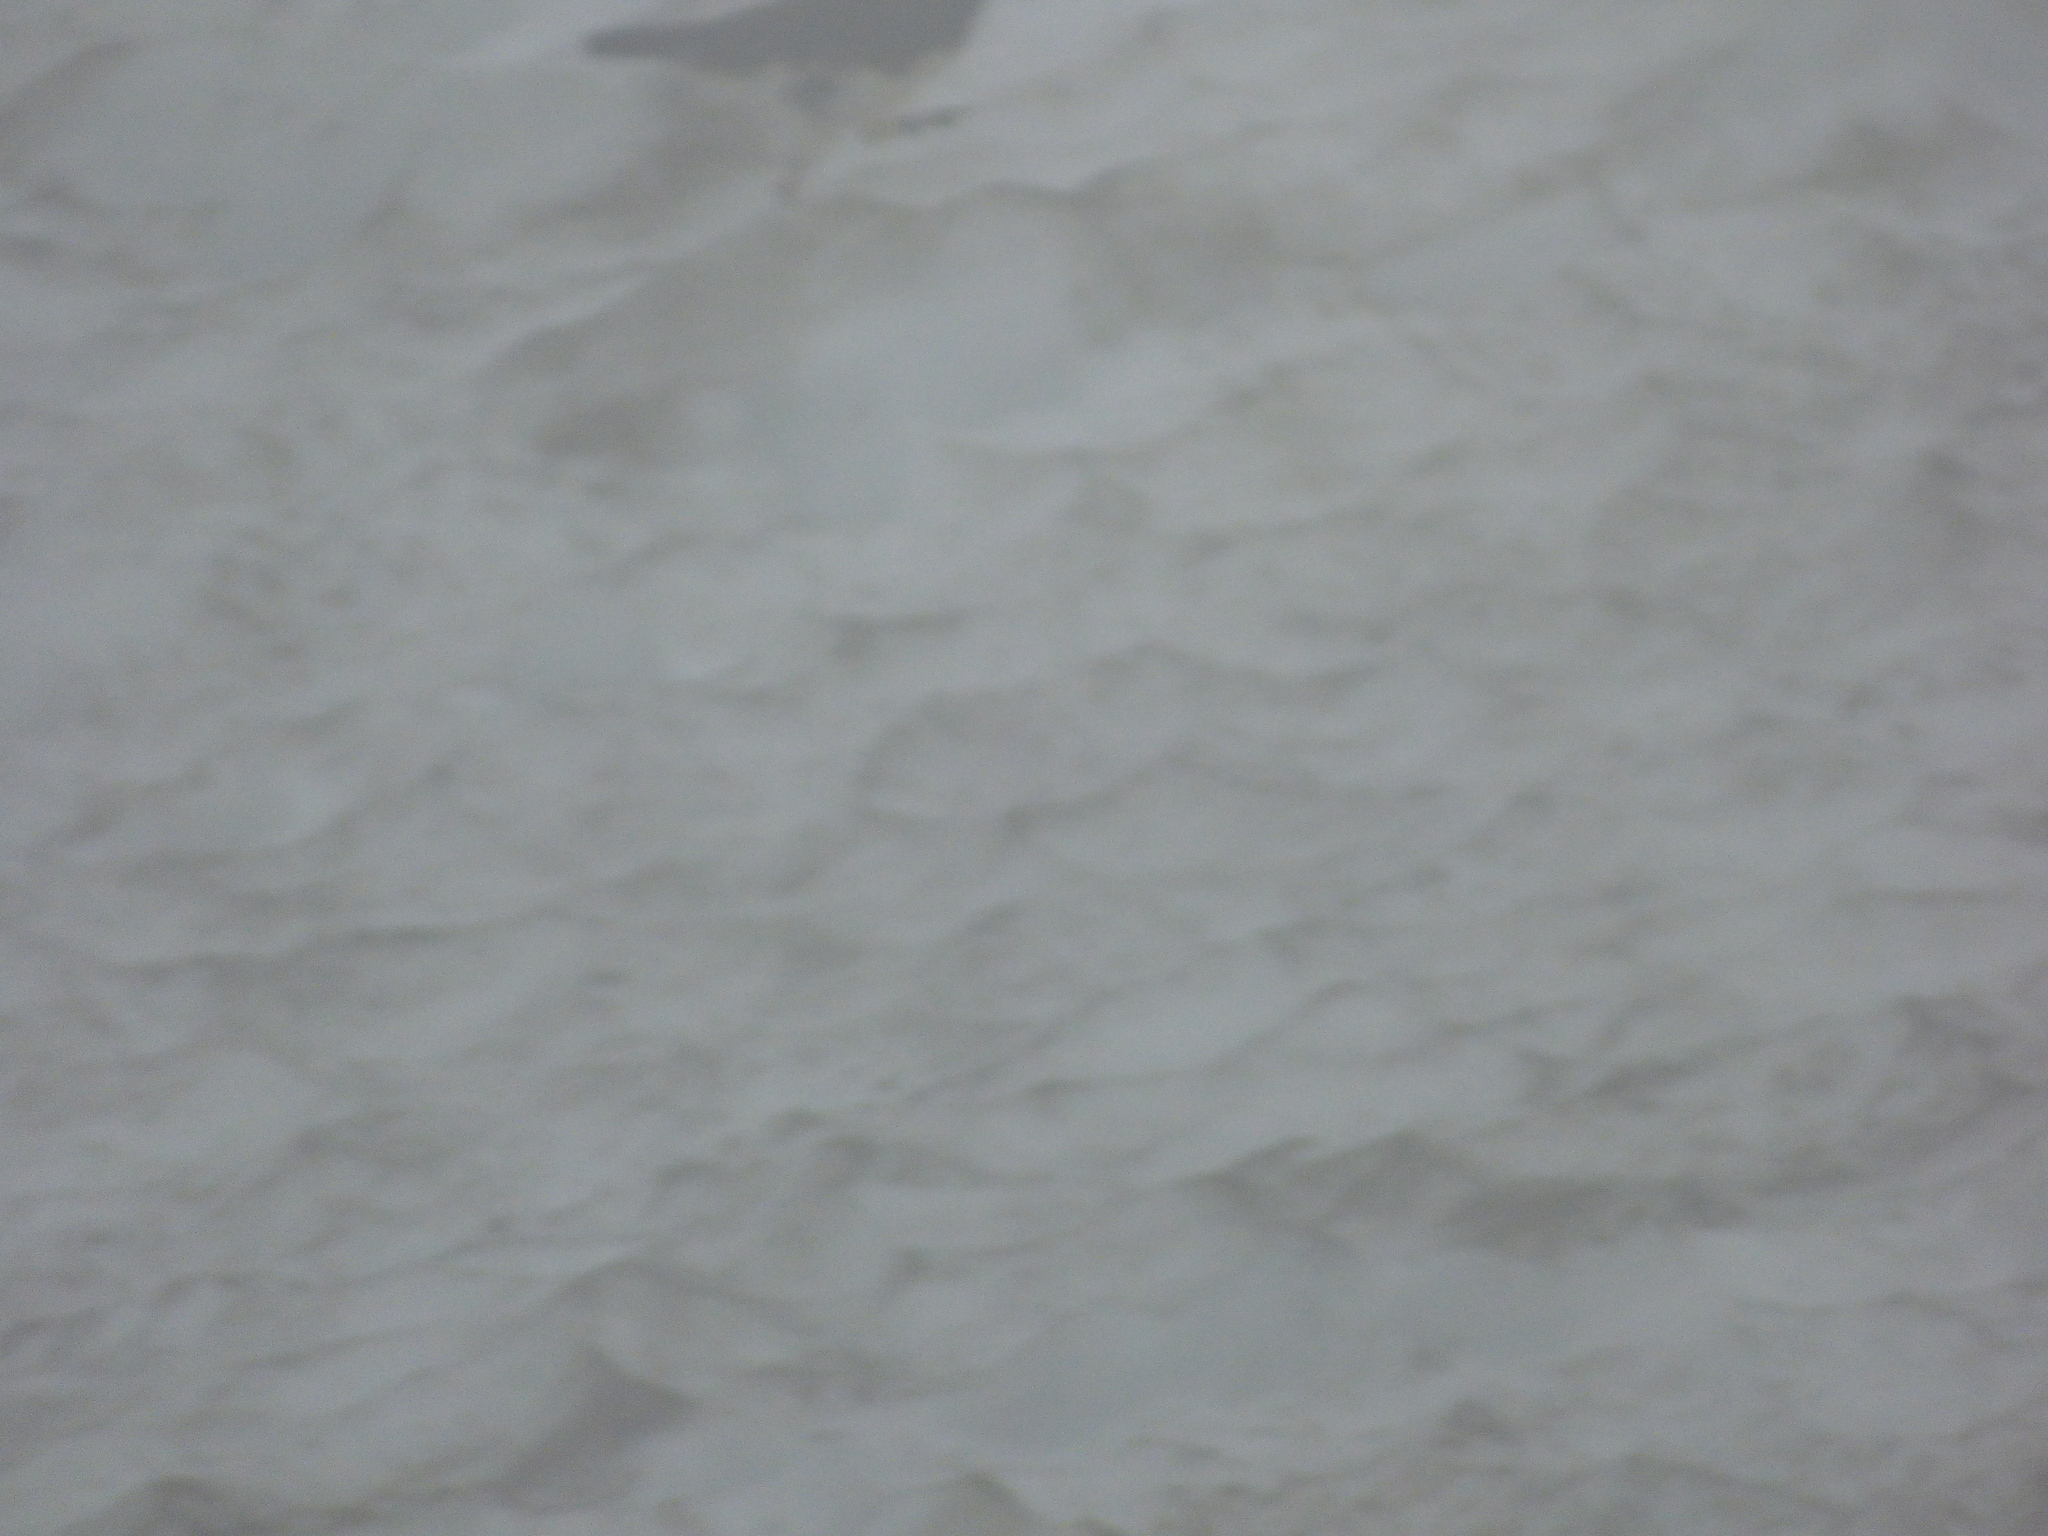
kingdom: Animalia
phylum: Chordata
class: Aves
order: Galliformes
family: Phasianidae
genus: Lagopus
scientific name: Lagopus muta
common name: Rock ptarmigan
